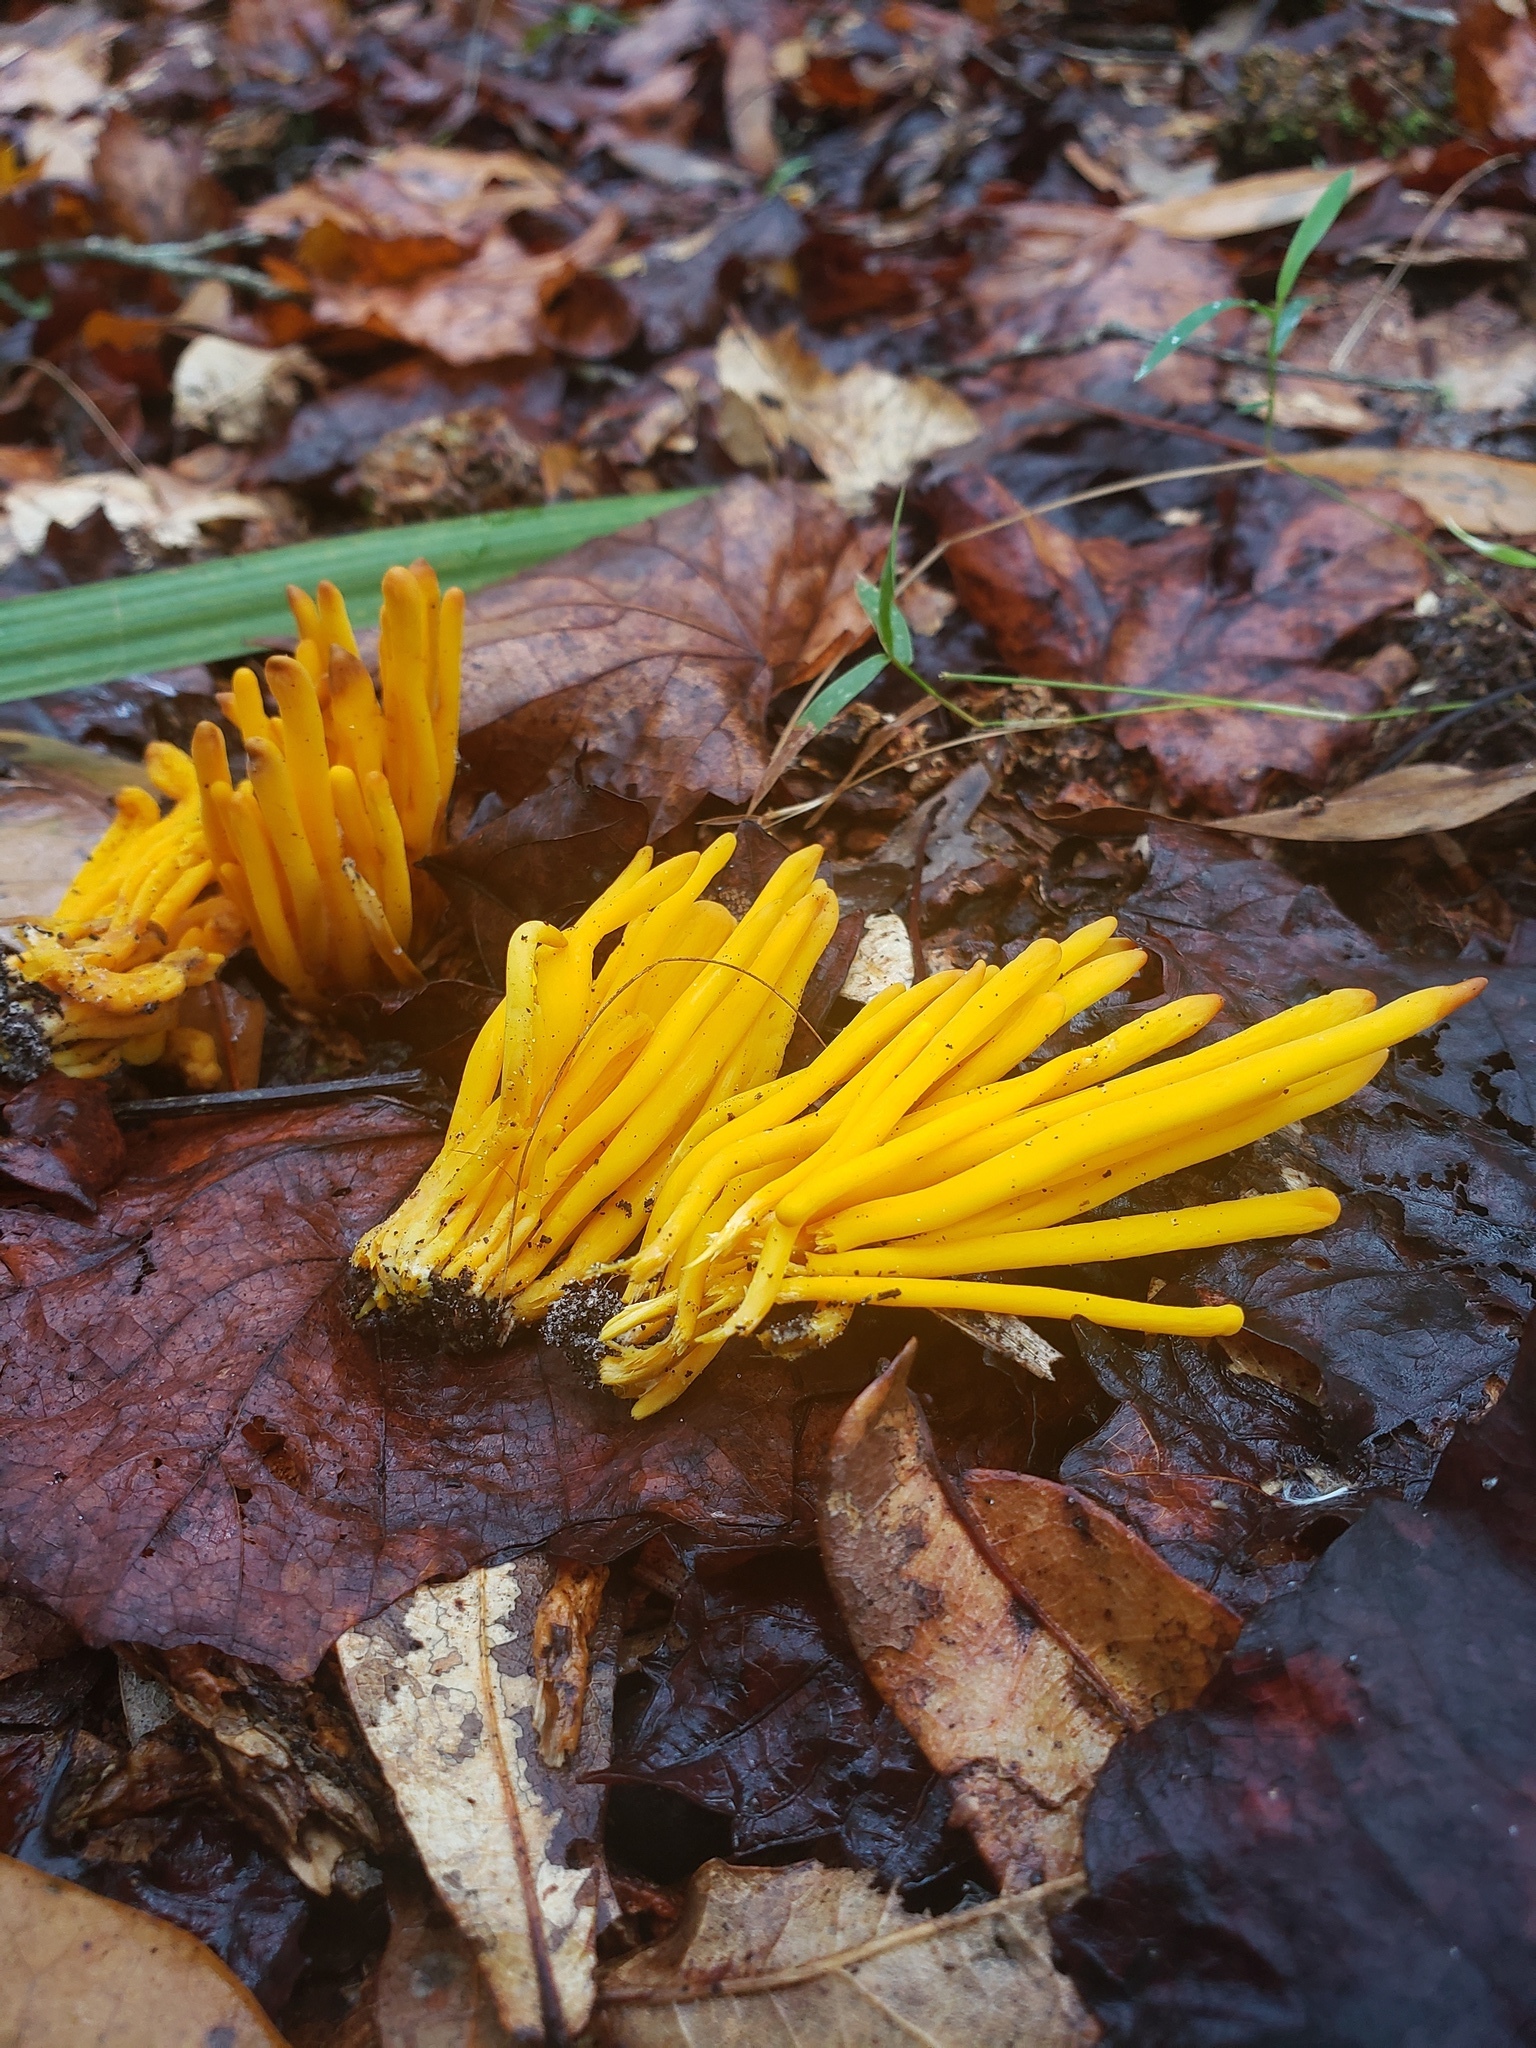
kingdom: Fungi
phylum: Basidiomycota
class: Agaricomycetes
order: Agaricales
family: Clavariaceae
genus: Clavulinopsis
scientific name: Clavulinopsis fusiformis
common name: Golden spindles
